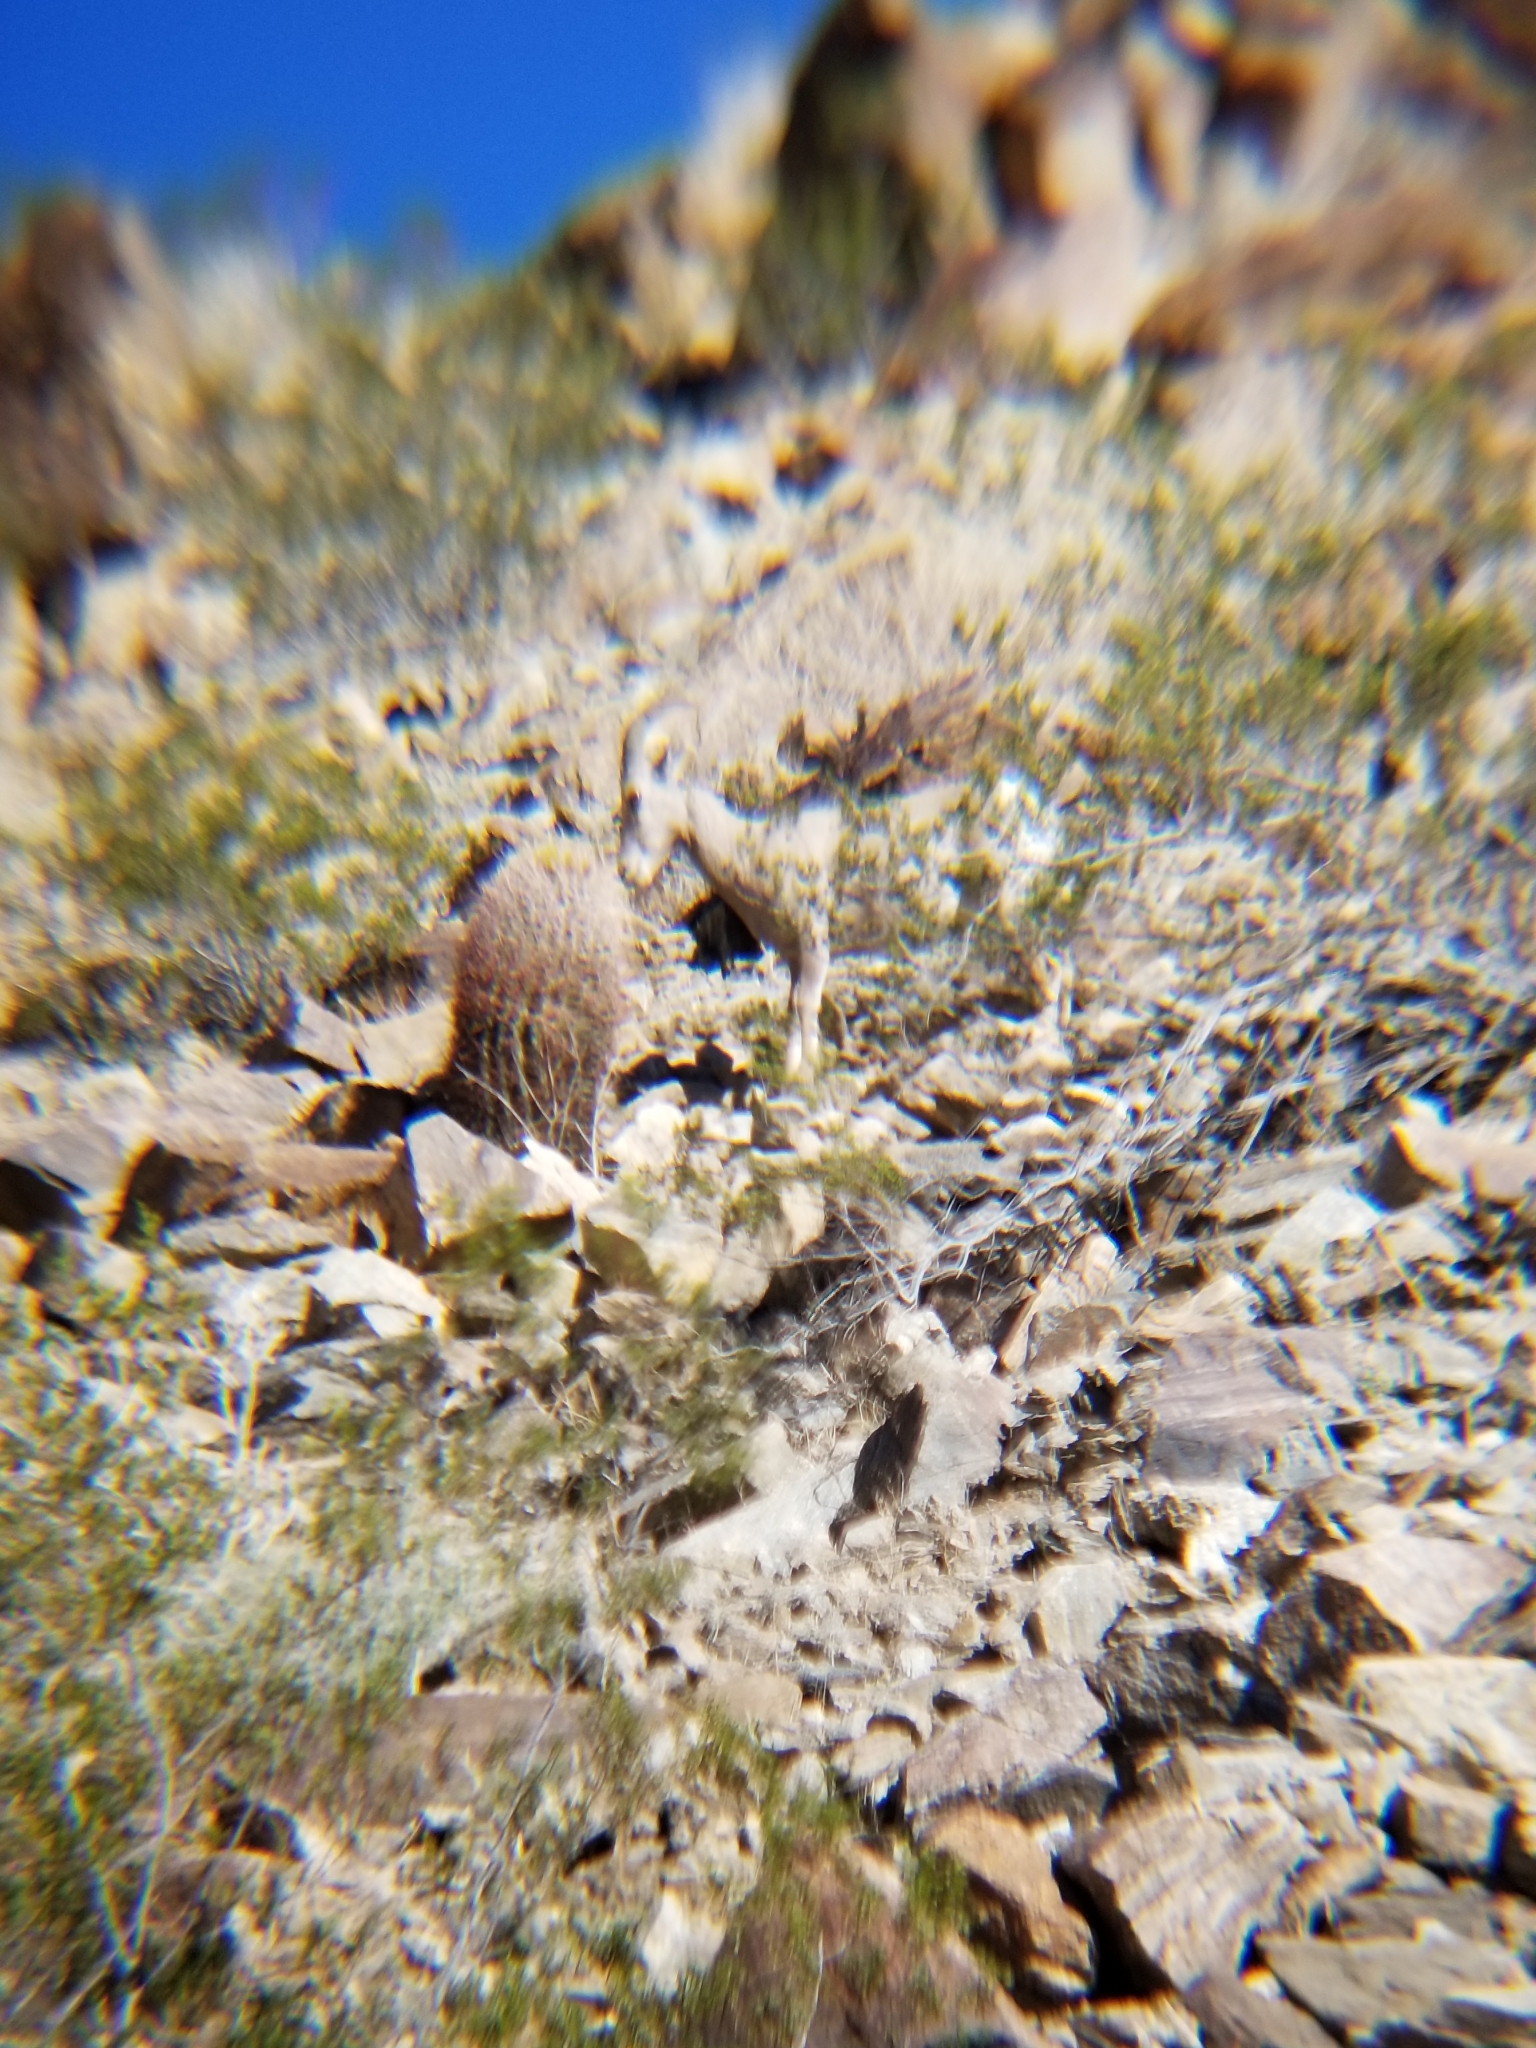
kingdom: Animalia
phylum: Chordata
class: Mammalia
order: Artiodactyla
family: Bovidae
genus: Ovis
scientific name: Ovis canadensis
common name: Bighorn sheep
